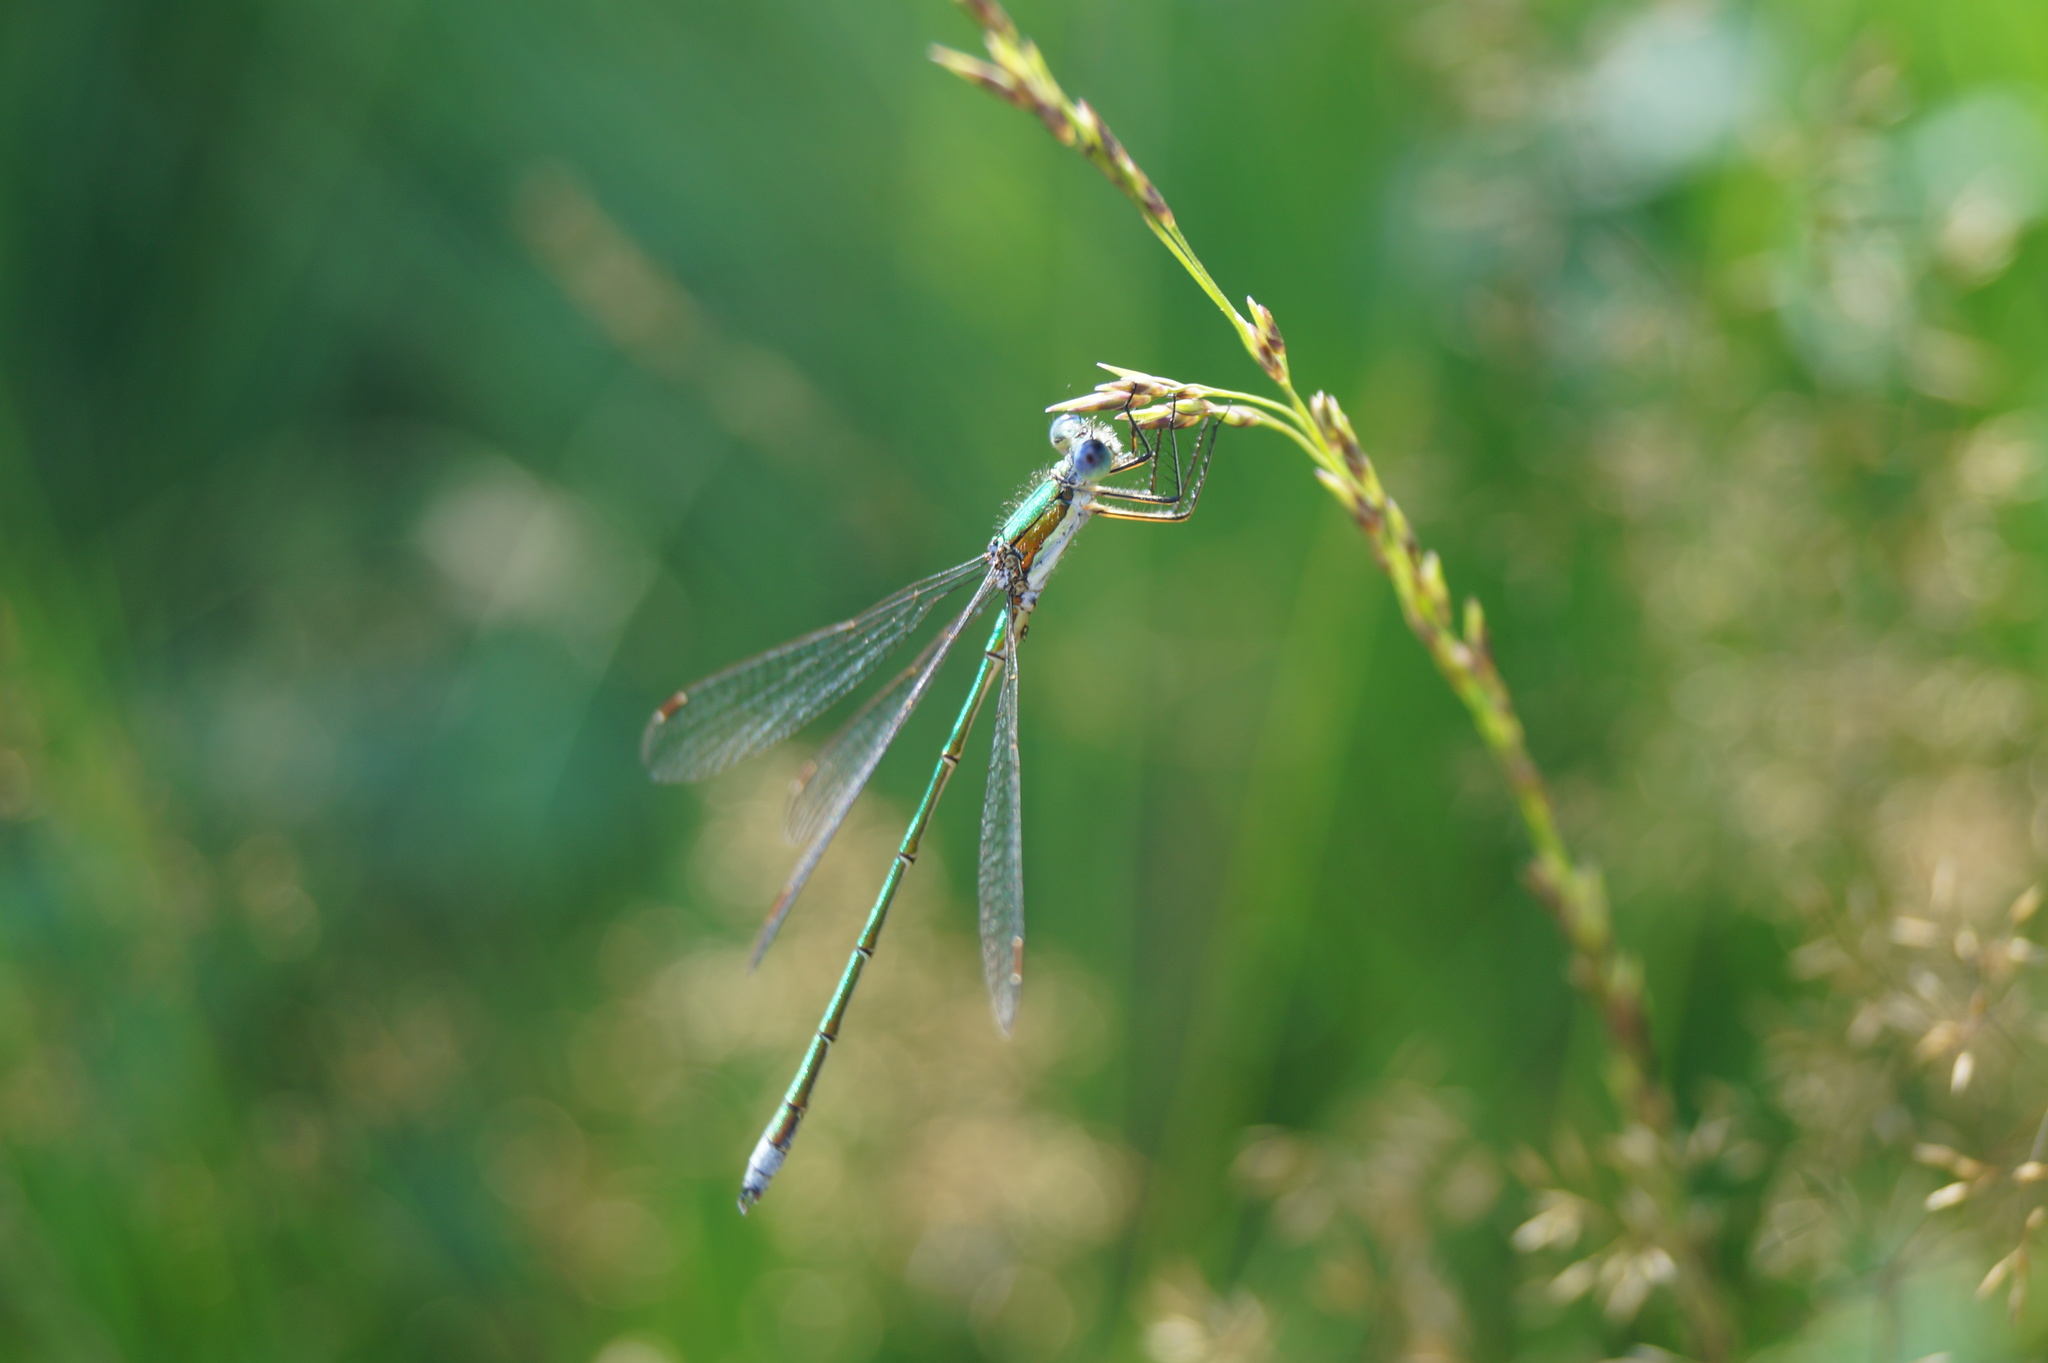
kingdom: Animalia
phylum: Arthropoda
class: Insecta
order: Odonata
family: Lestidae
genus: Lestes
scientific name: Lestes virens
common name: Small emerald spreadwing
